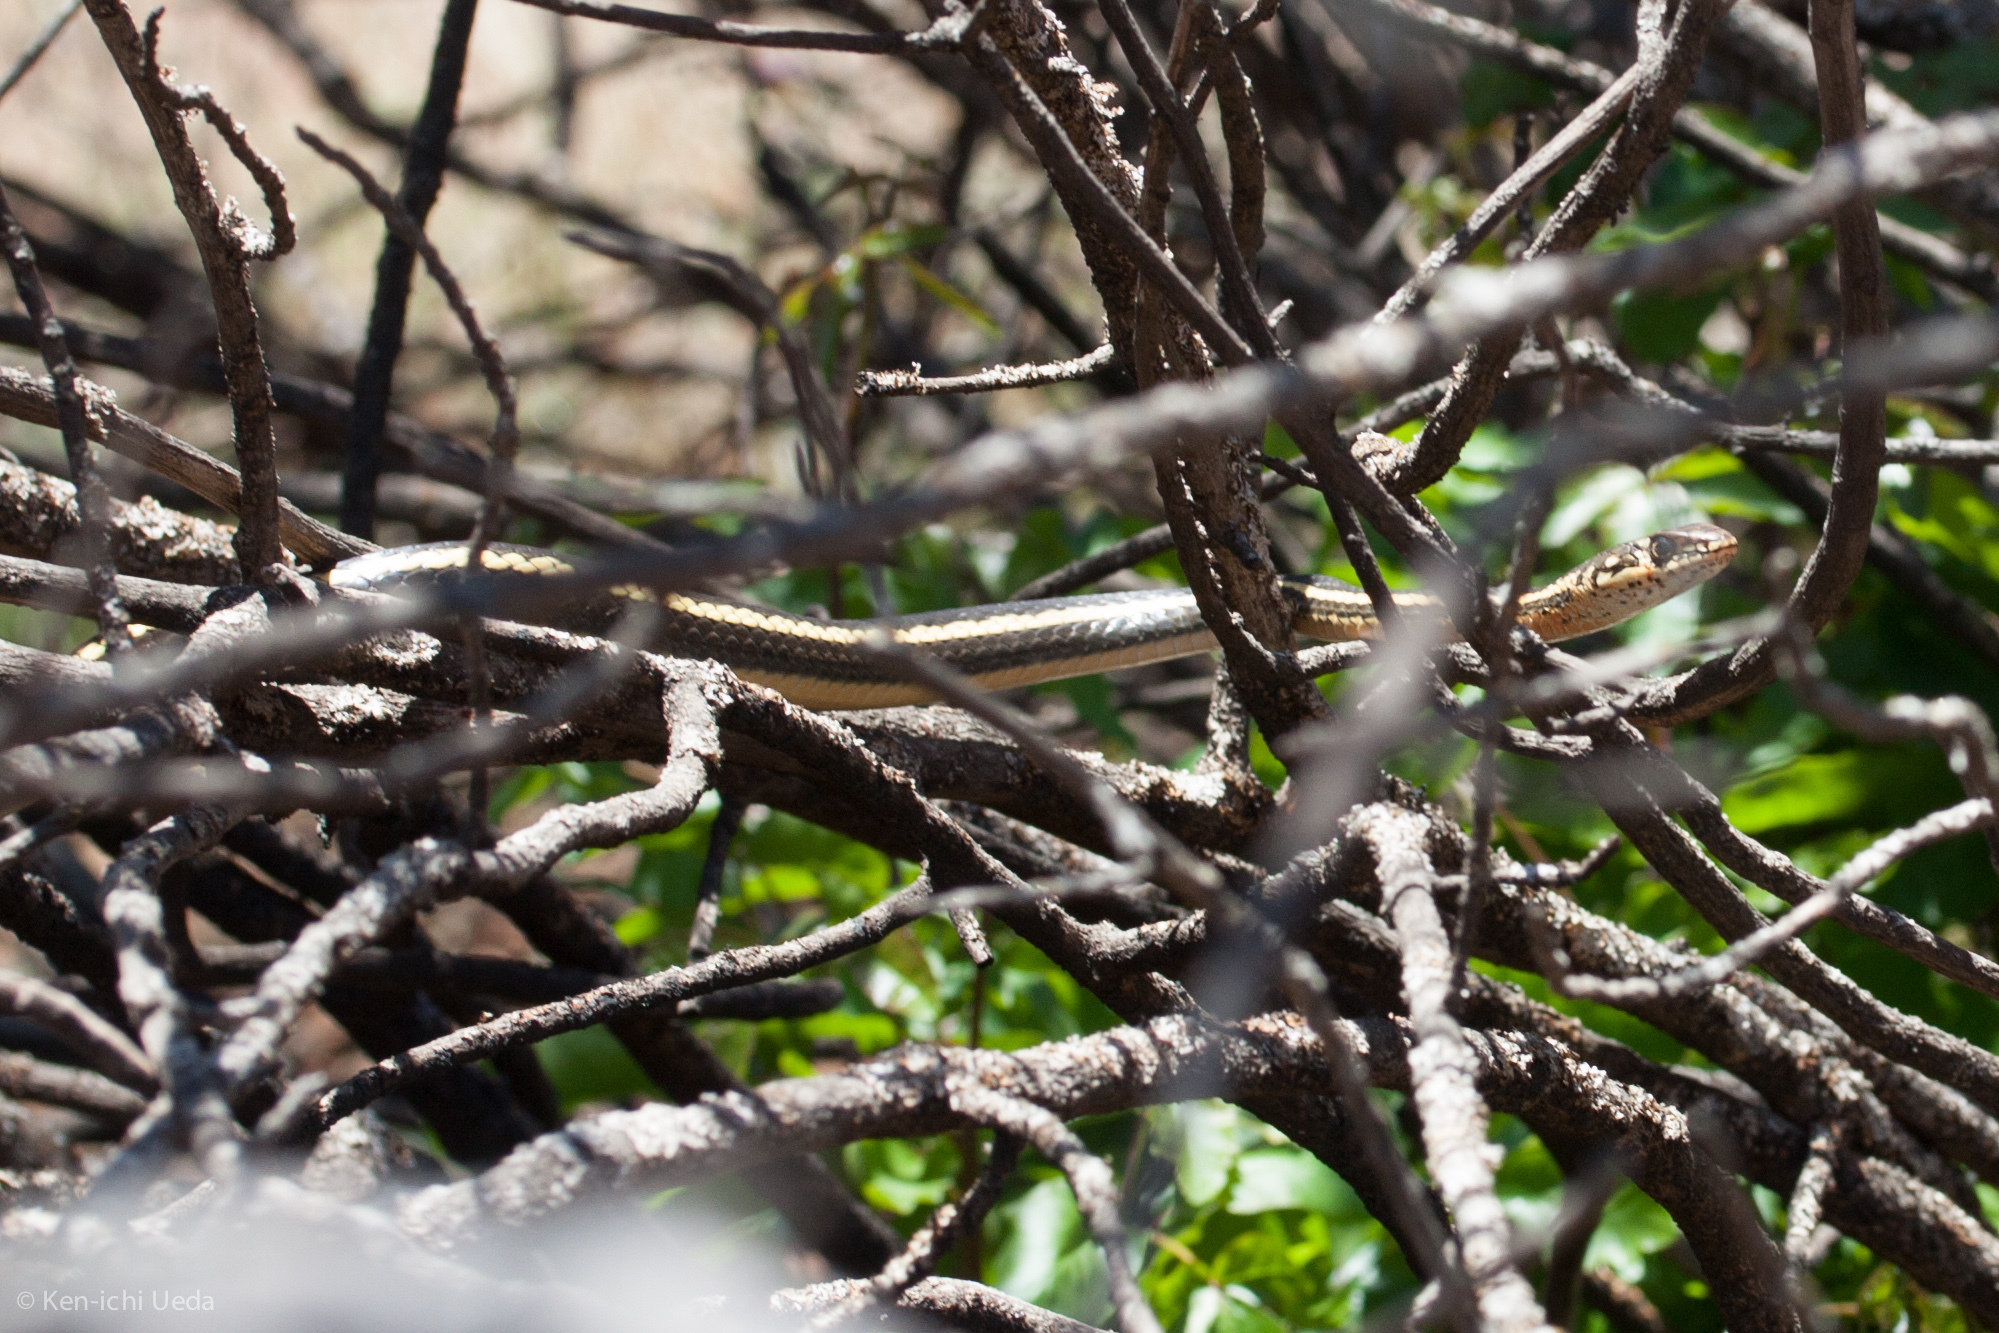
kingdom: Animalia
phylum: Chordata
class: Squamata
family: Colubridae
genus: Masticophis
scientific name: Masticophis lateralis
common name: Striped racer
